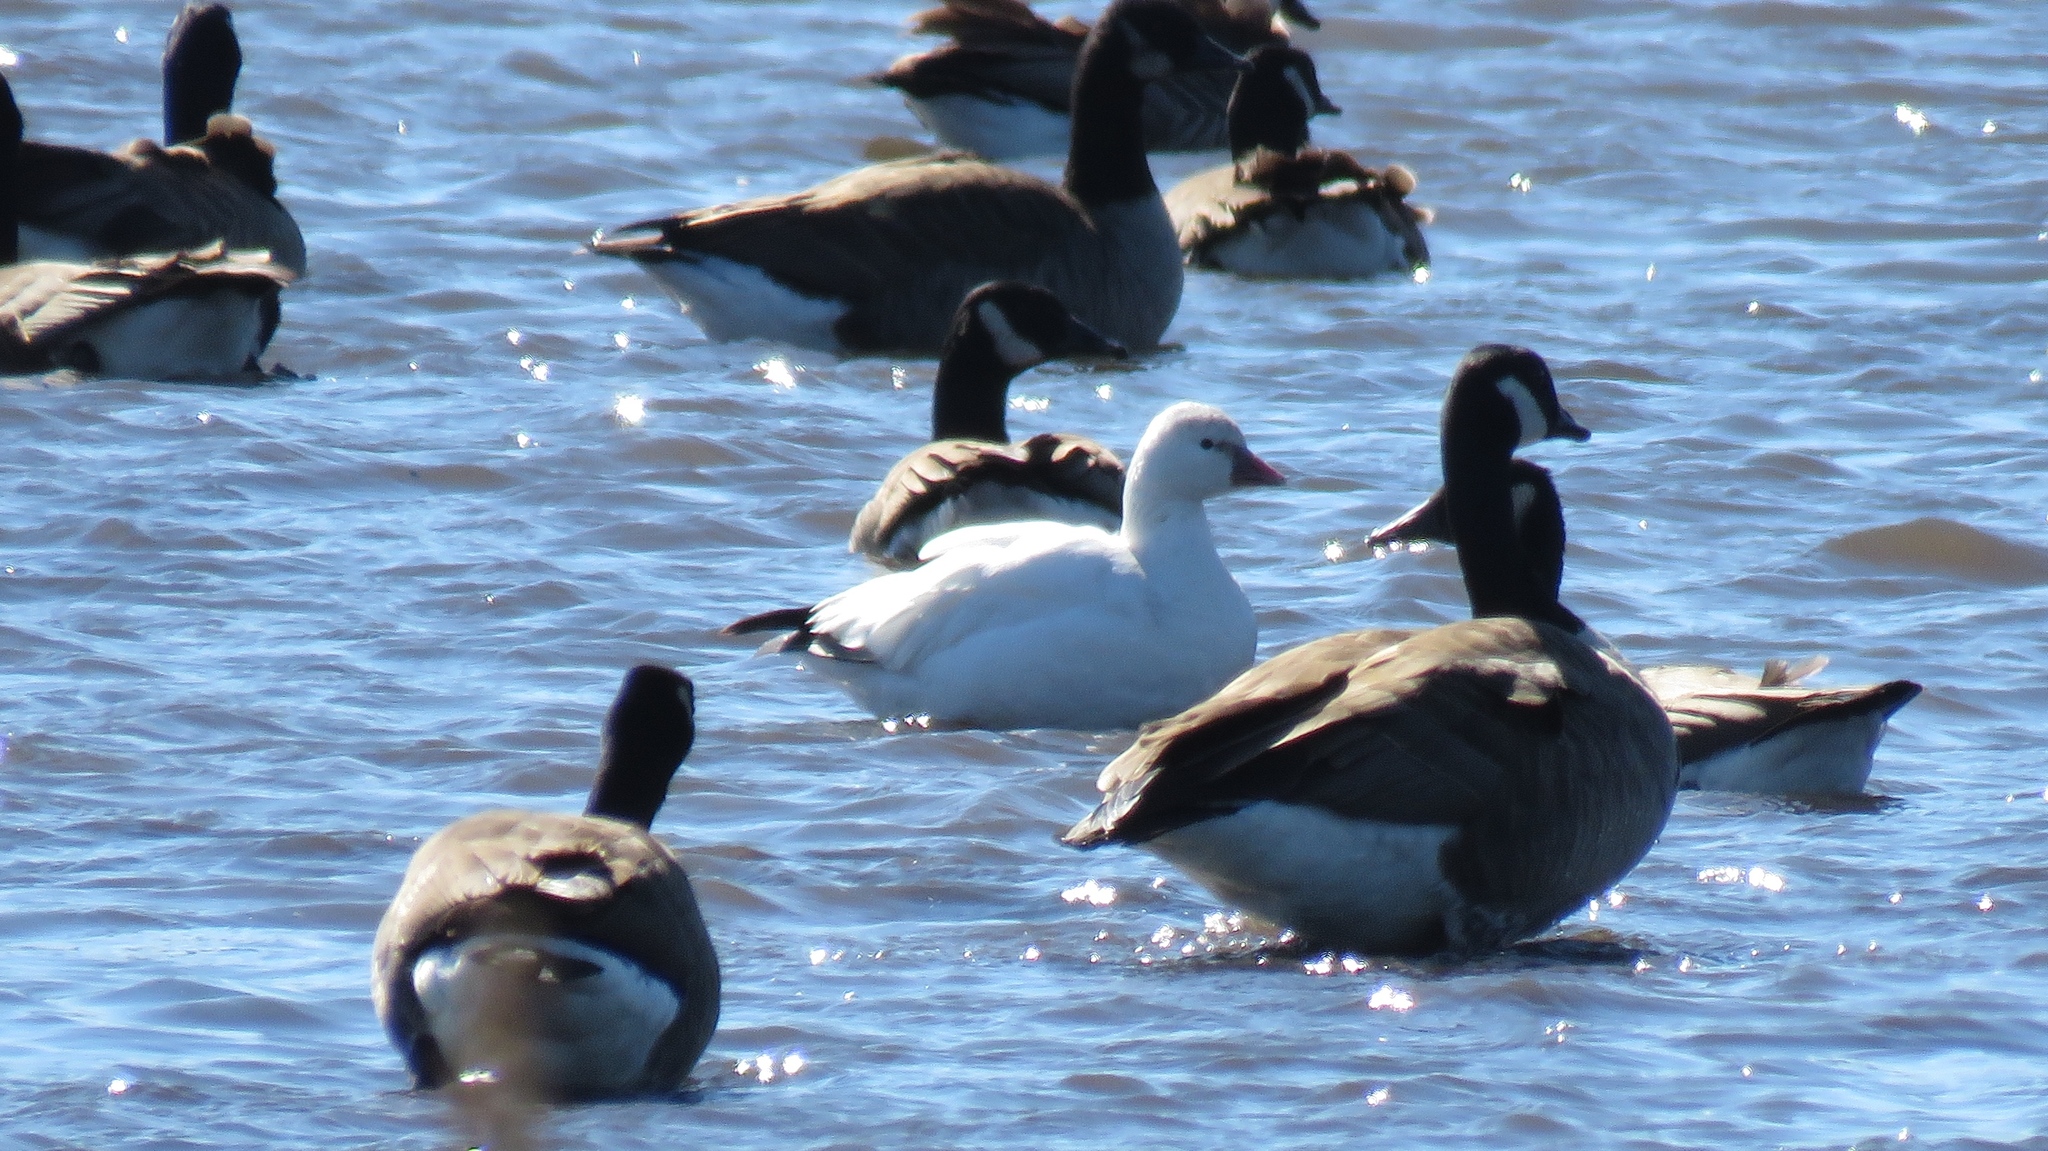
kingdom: Animalia
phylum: Chordata
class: Aves
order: Anseriformes
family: Anatidae
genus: Anser
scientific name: Anser rossii
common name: Ross's goose
